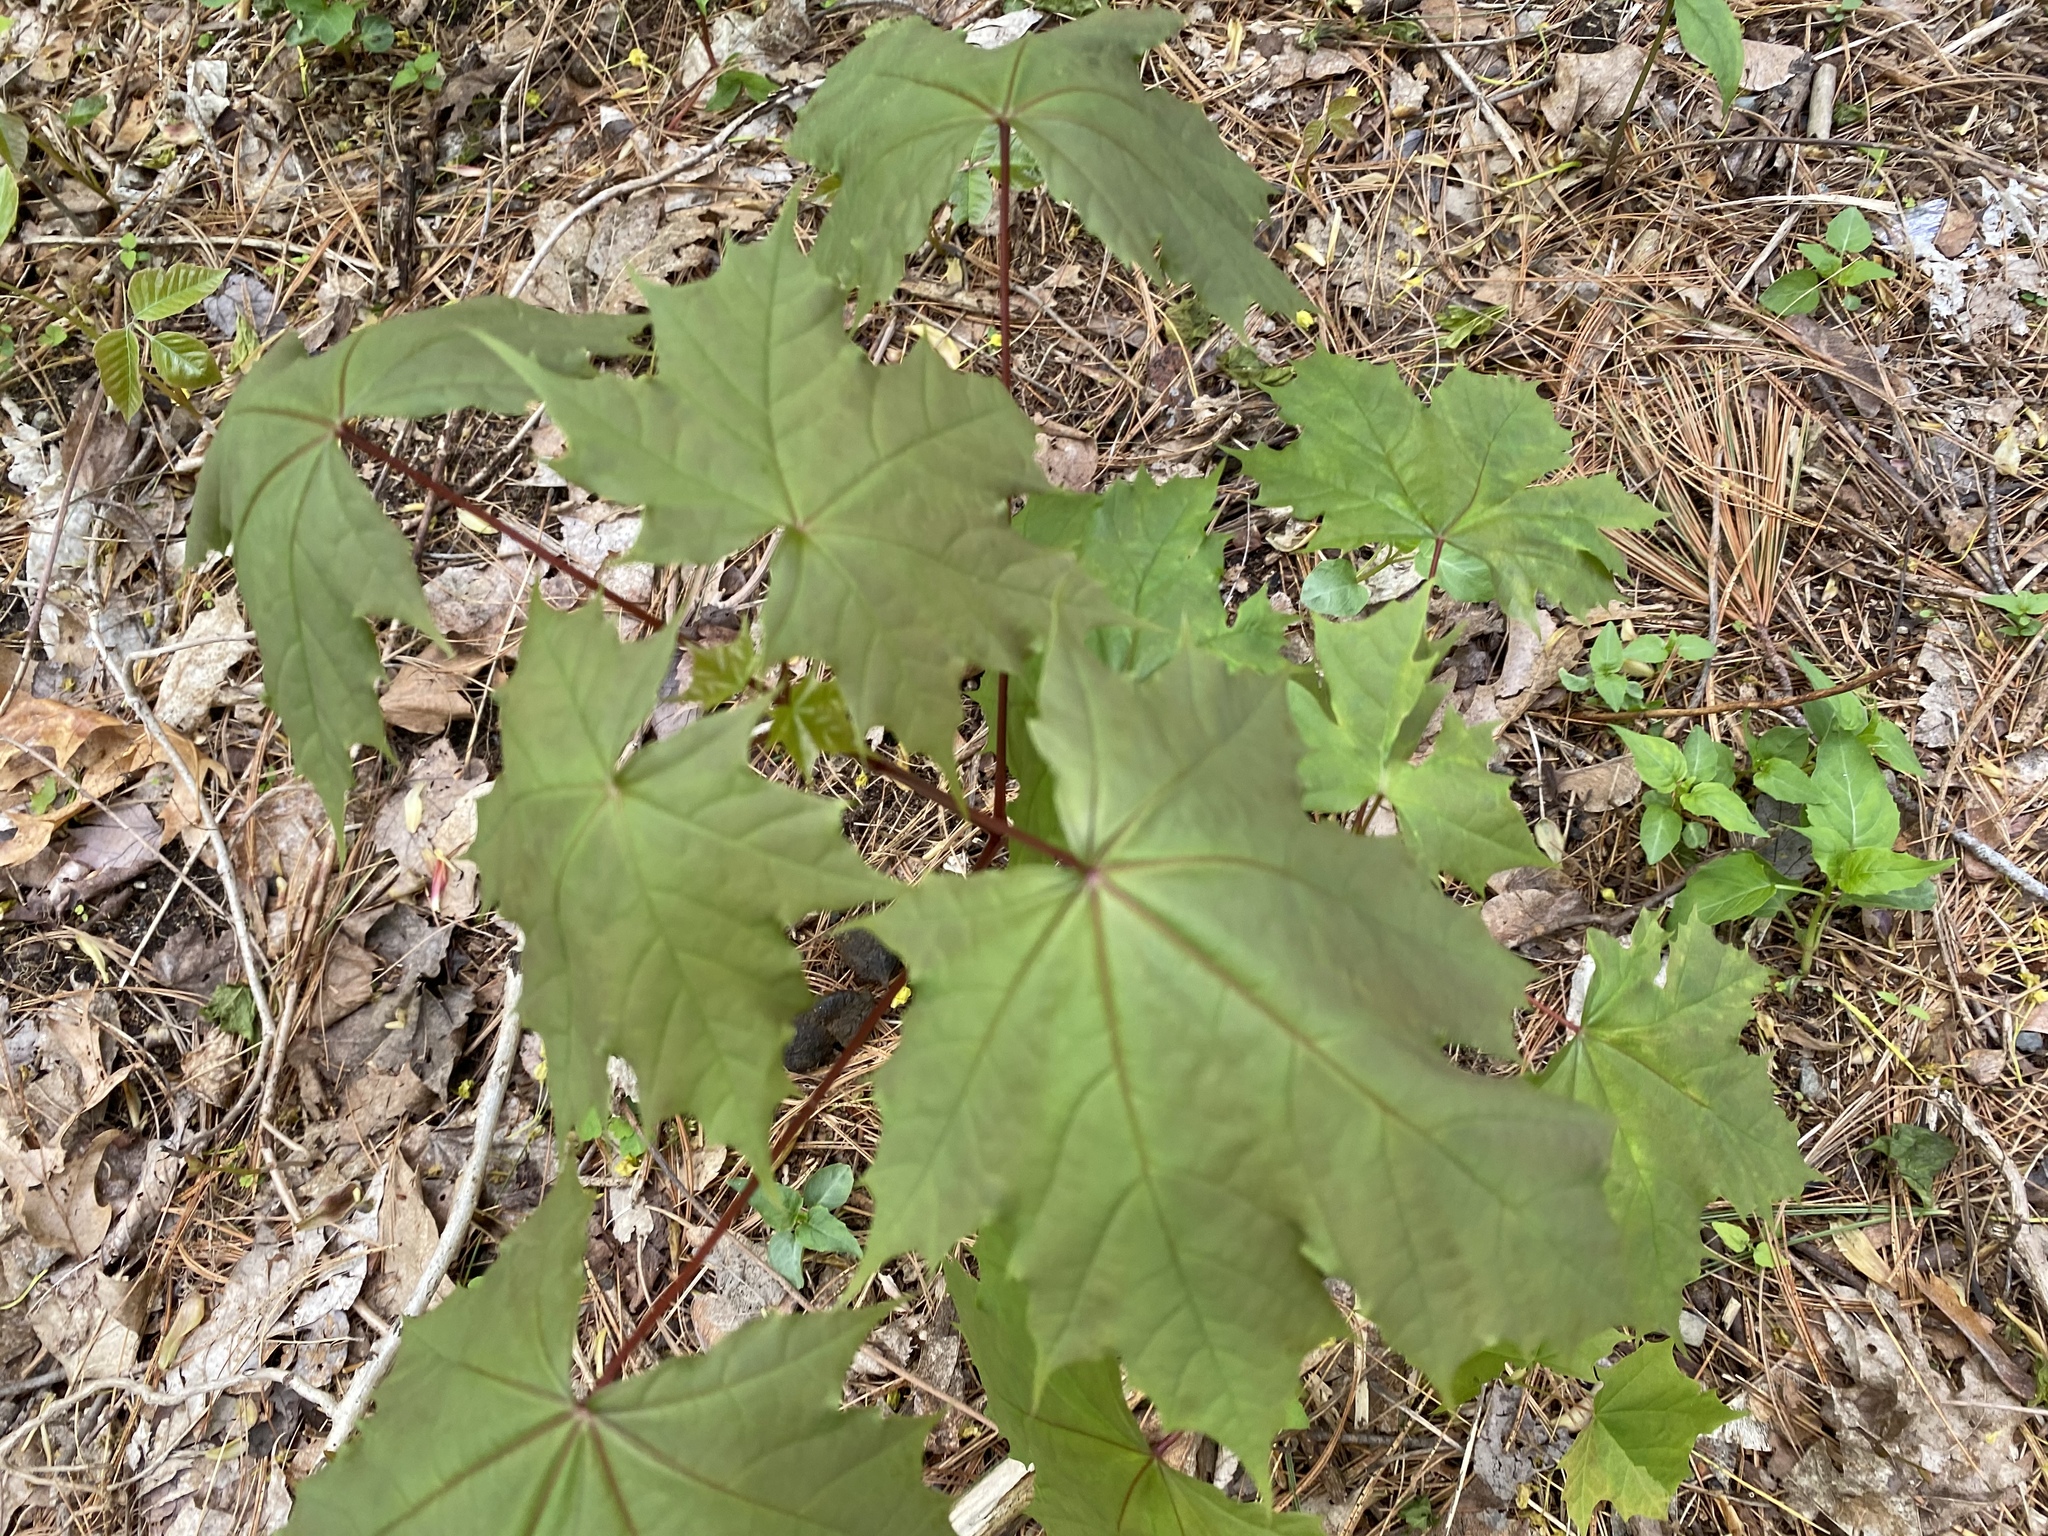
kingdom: Plantae
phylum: Tracheophyta
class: Magnoliopsida
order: Sapindales
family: Sapindaceae
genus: Acer
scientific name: Acer platanoides
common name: Norway maple
